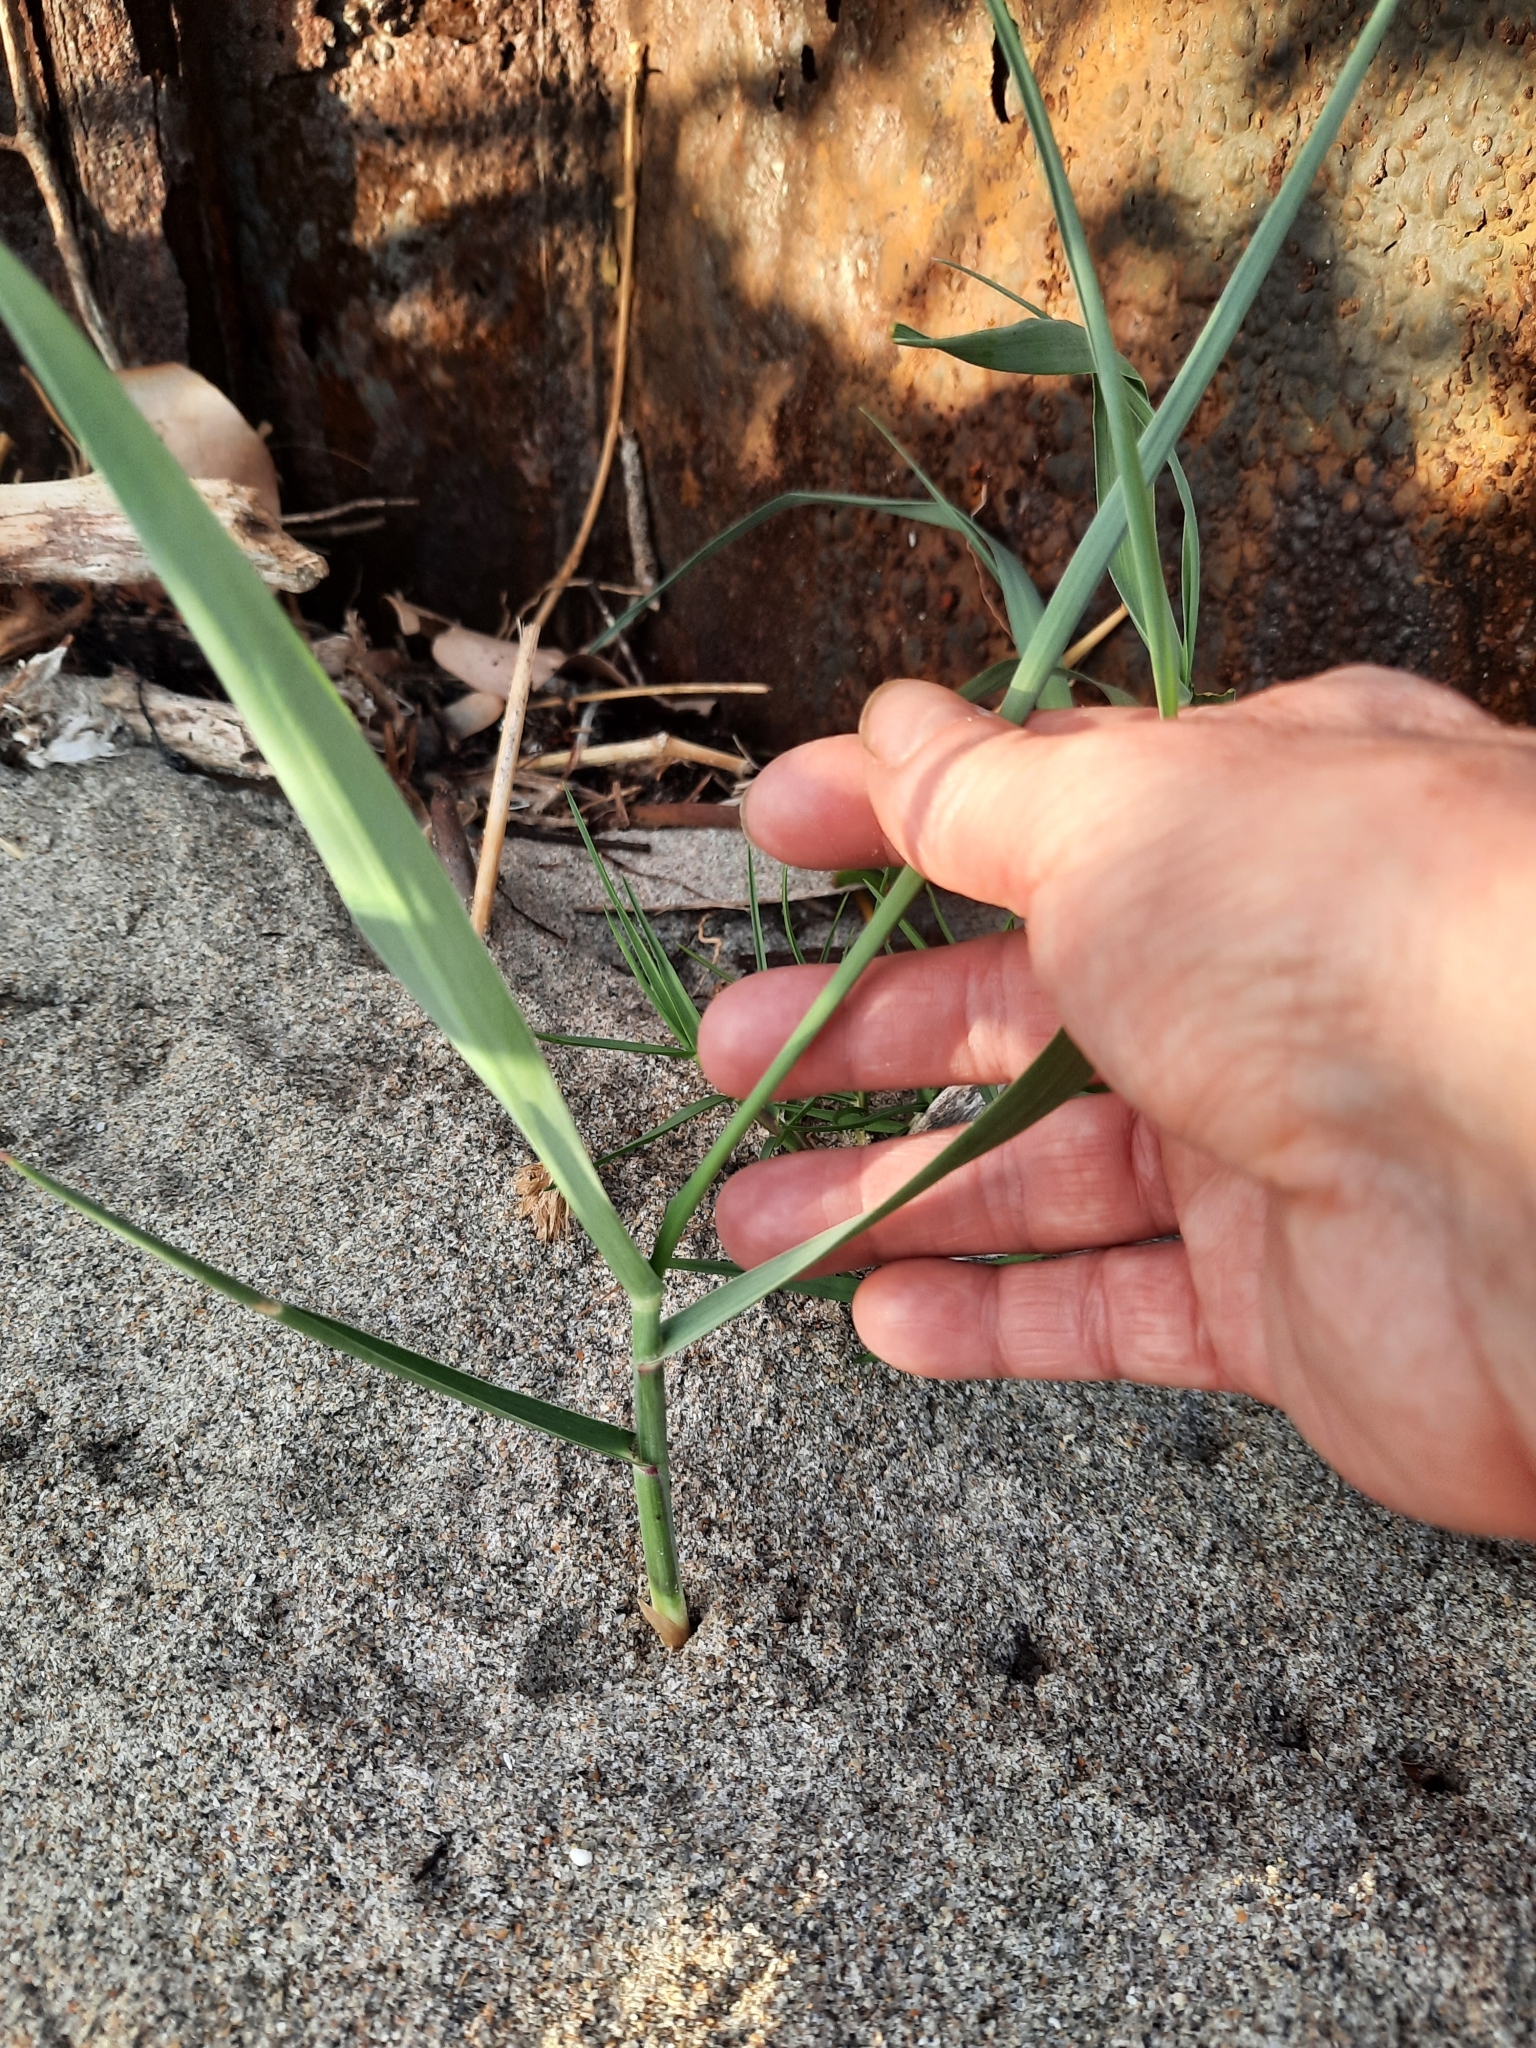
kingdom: Plantae
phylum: Tracheophyta
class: Liliopsida
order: Poales
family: Poaceae
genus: Panicum
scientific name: Panicum amarum
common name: Bitter panicum
